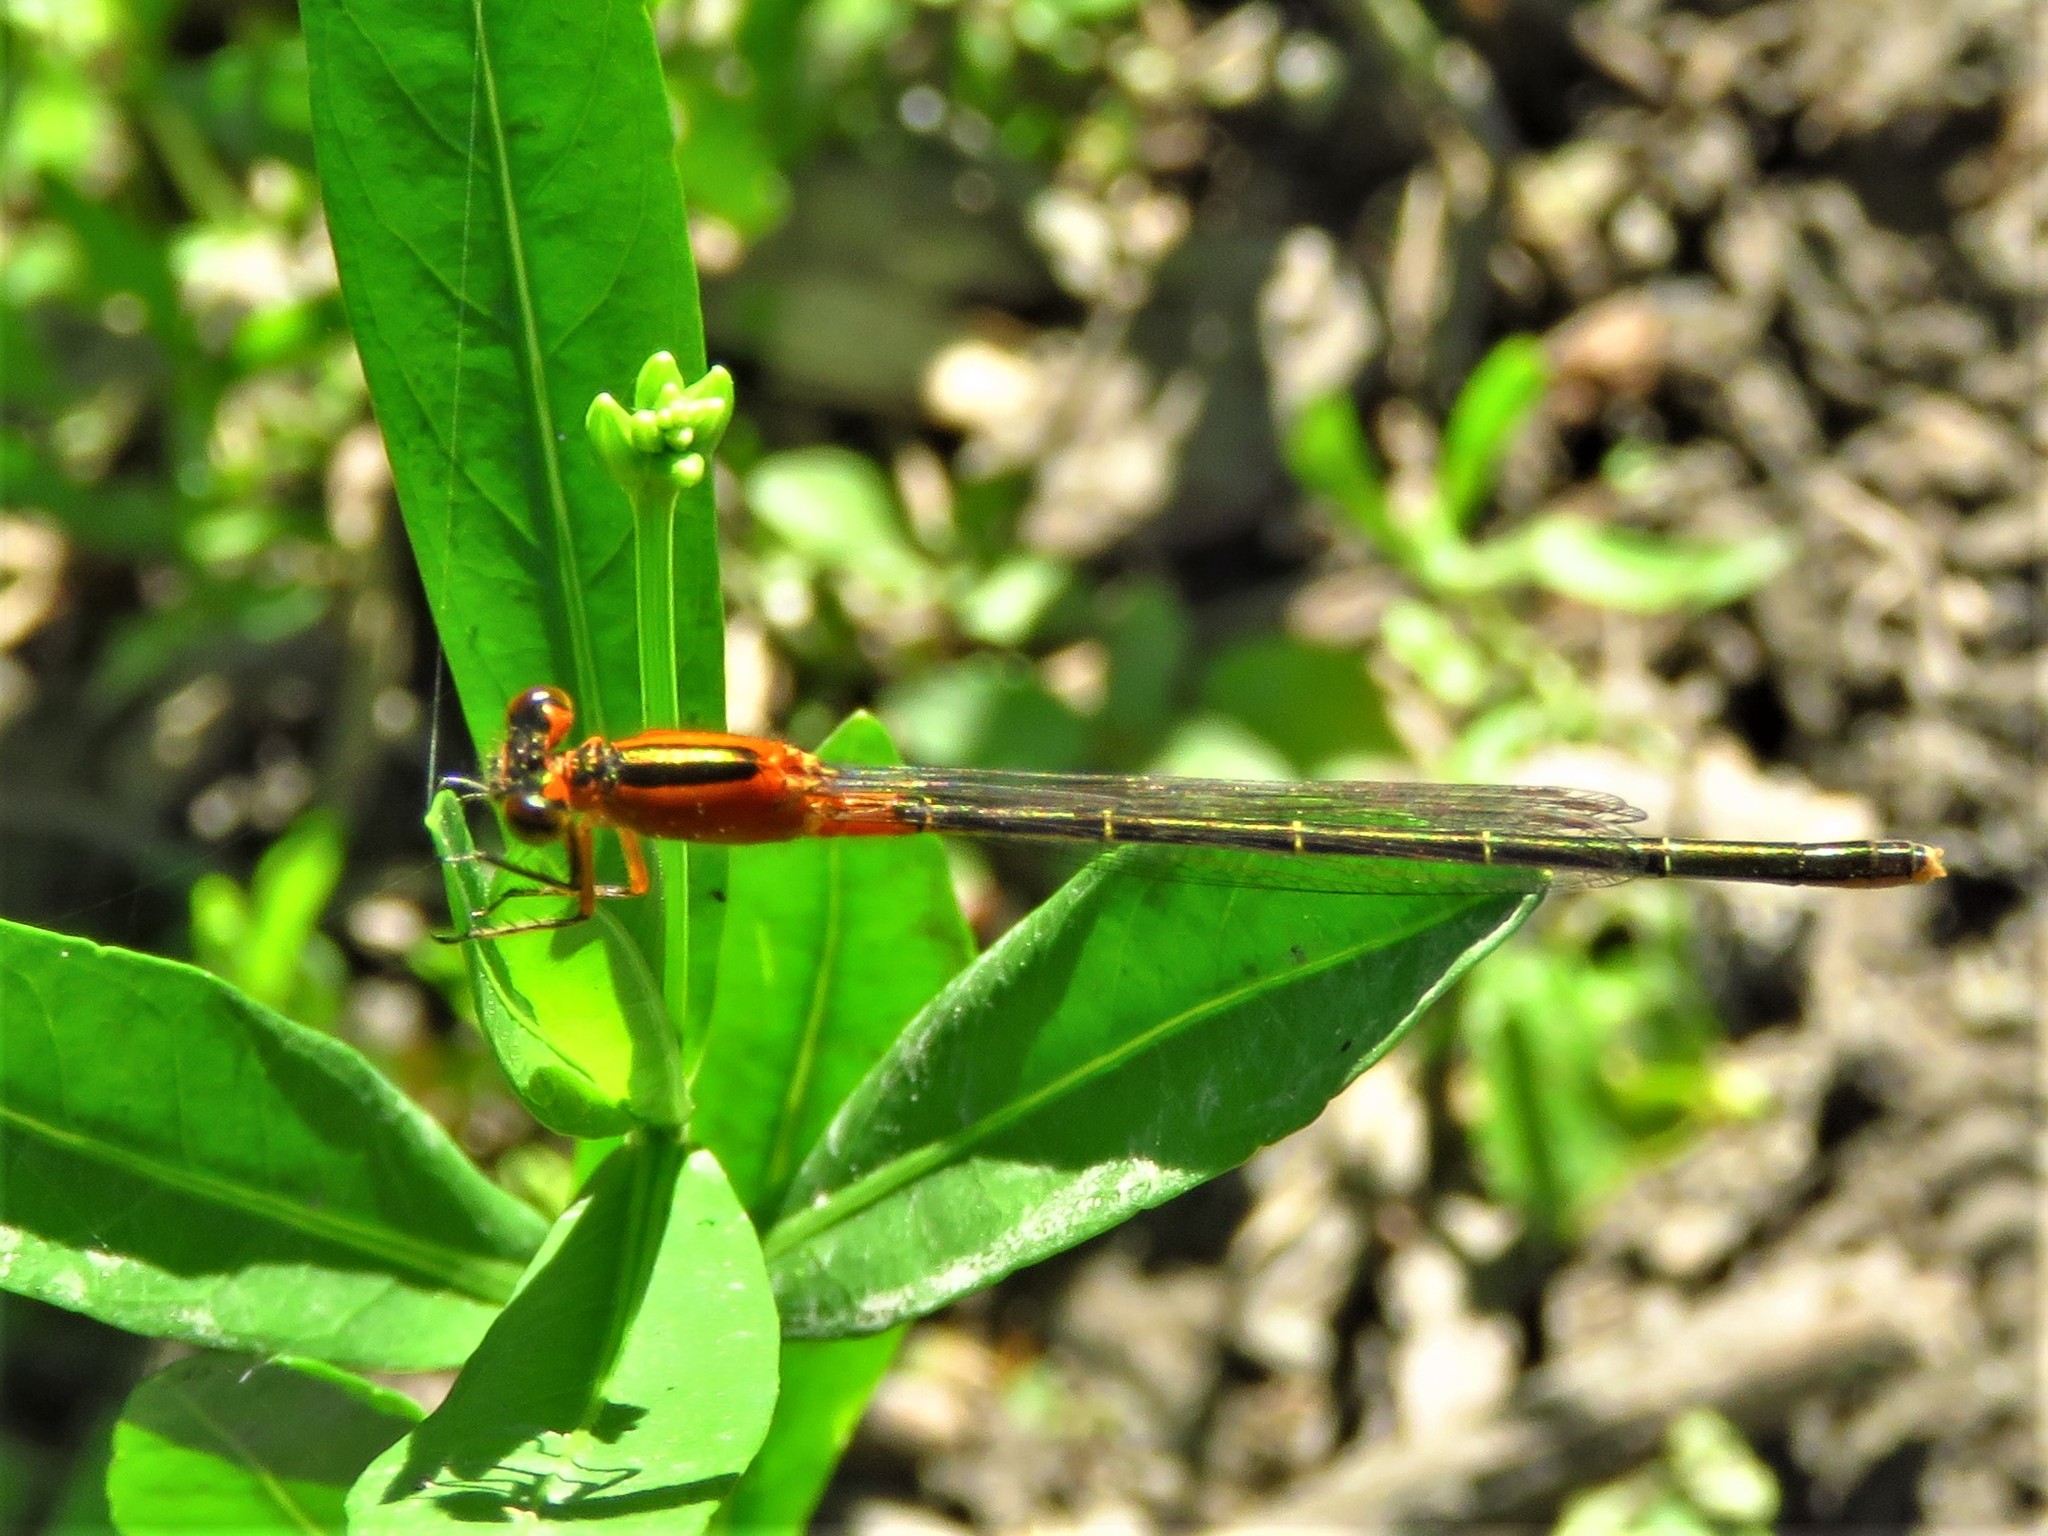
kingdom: Animalia
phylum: Arthropoda
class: Insecta
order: Odonata
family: Coenagrionidae
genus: Ischnura
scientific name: Ischnura ramburii
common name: Rambur's forktail
